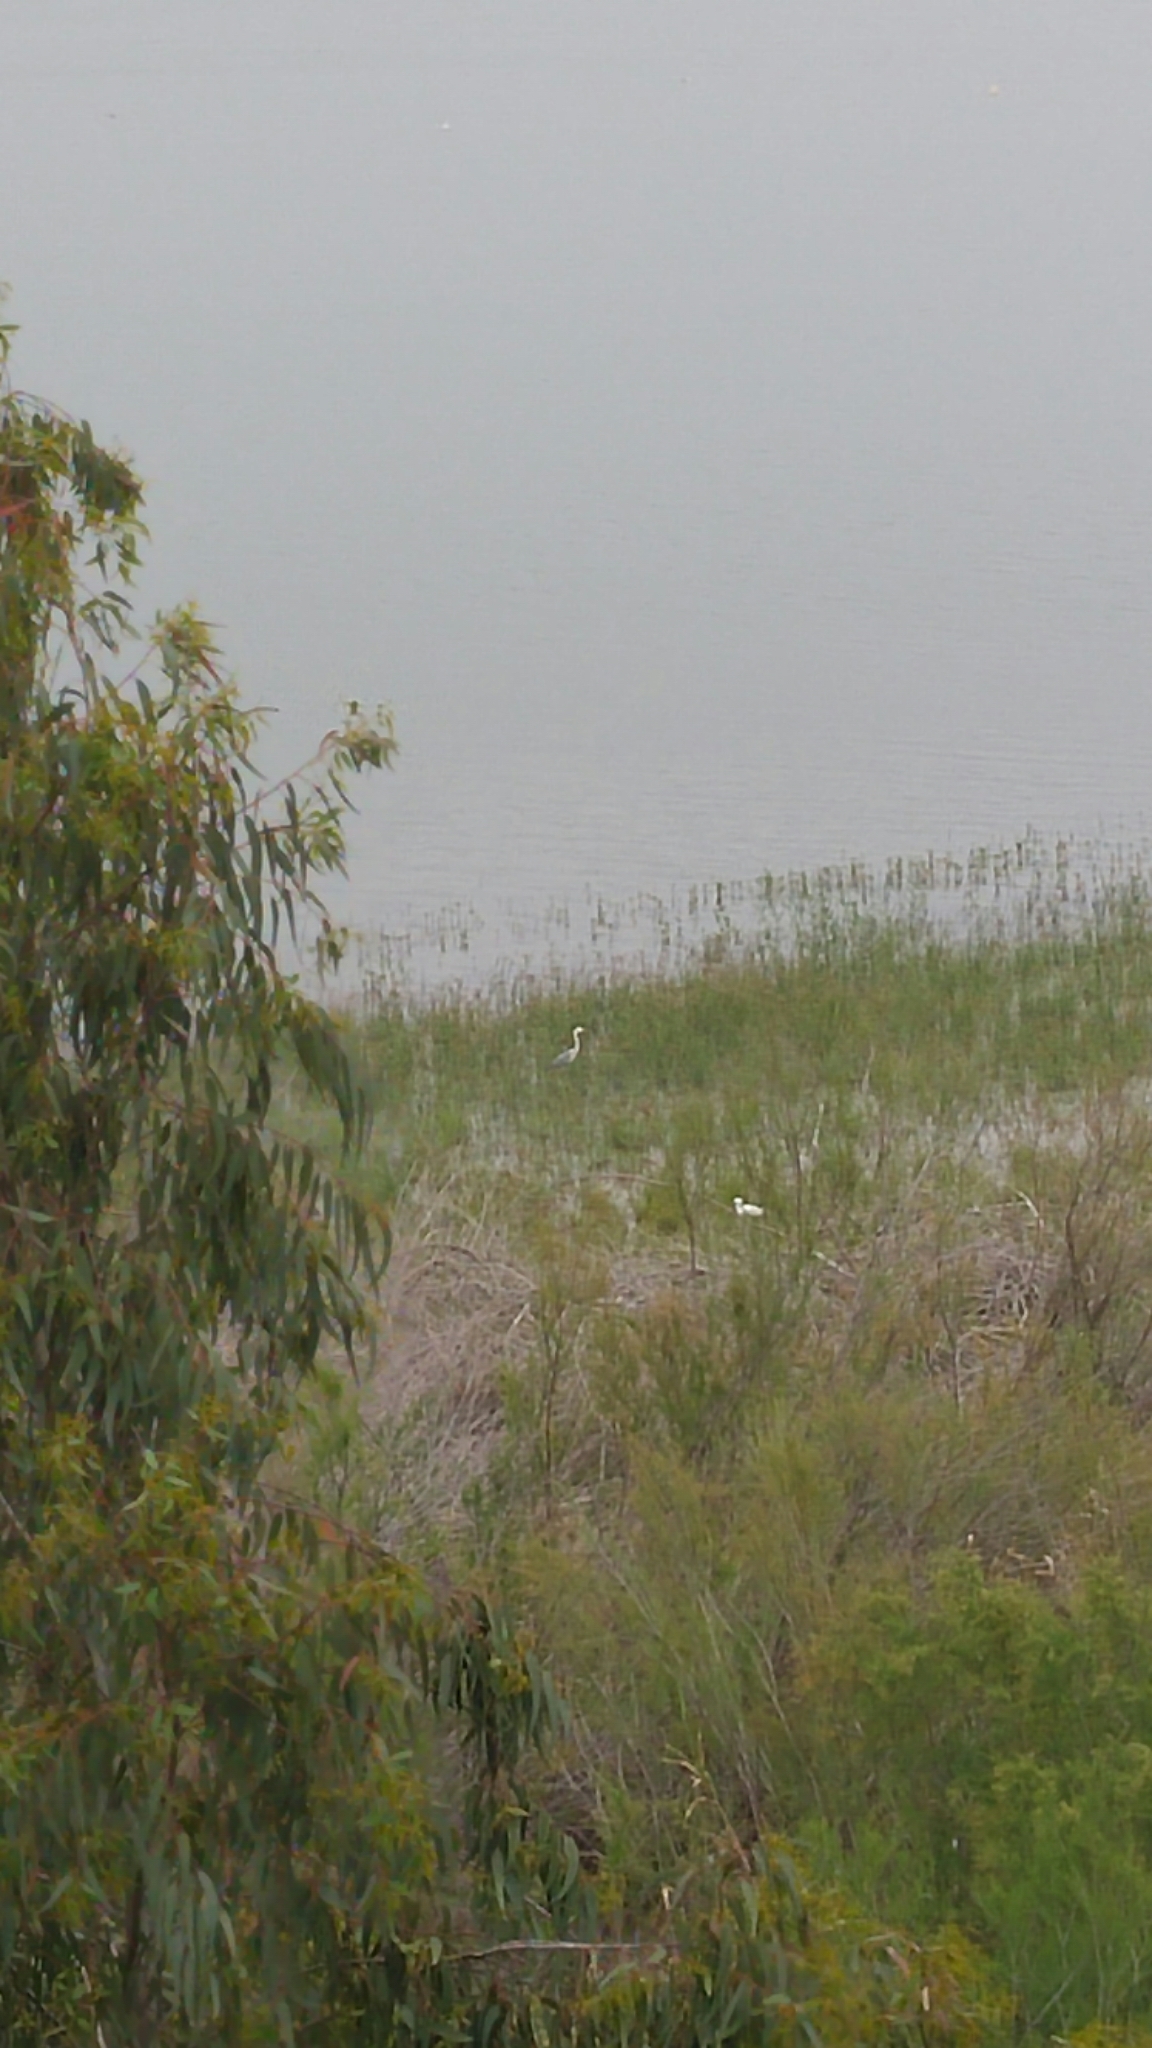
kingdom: Animalia
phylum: Chordata
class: Aves
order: Pelecaniformes
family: Ardeidae
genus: Ardea
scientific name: Ardea cinerea
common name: Grey heron
